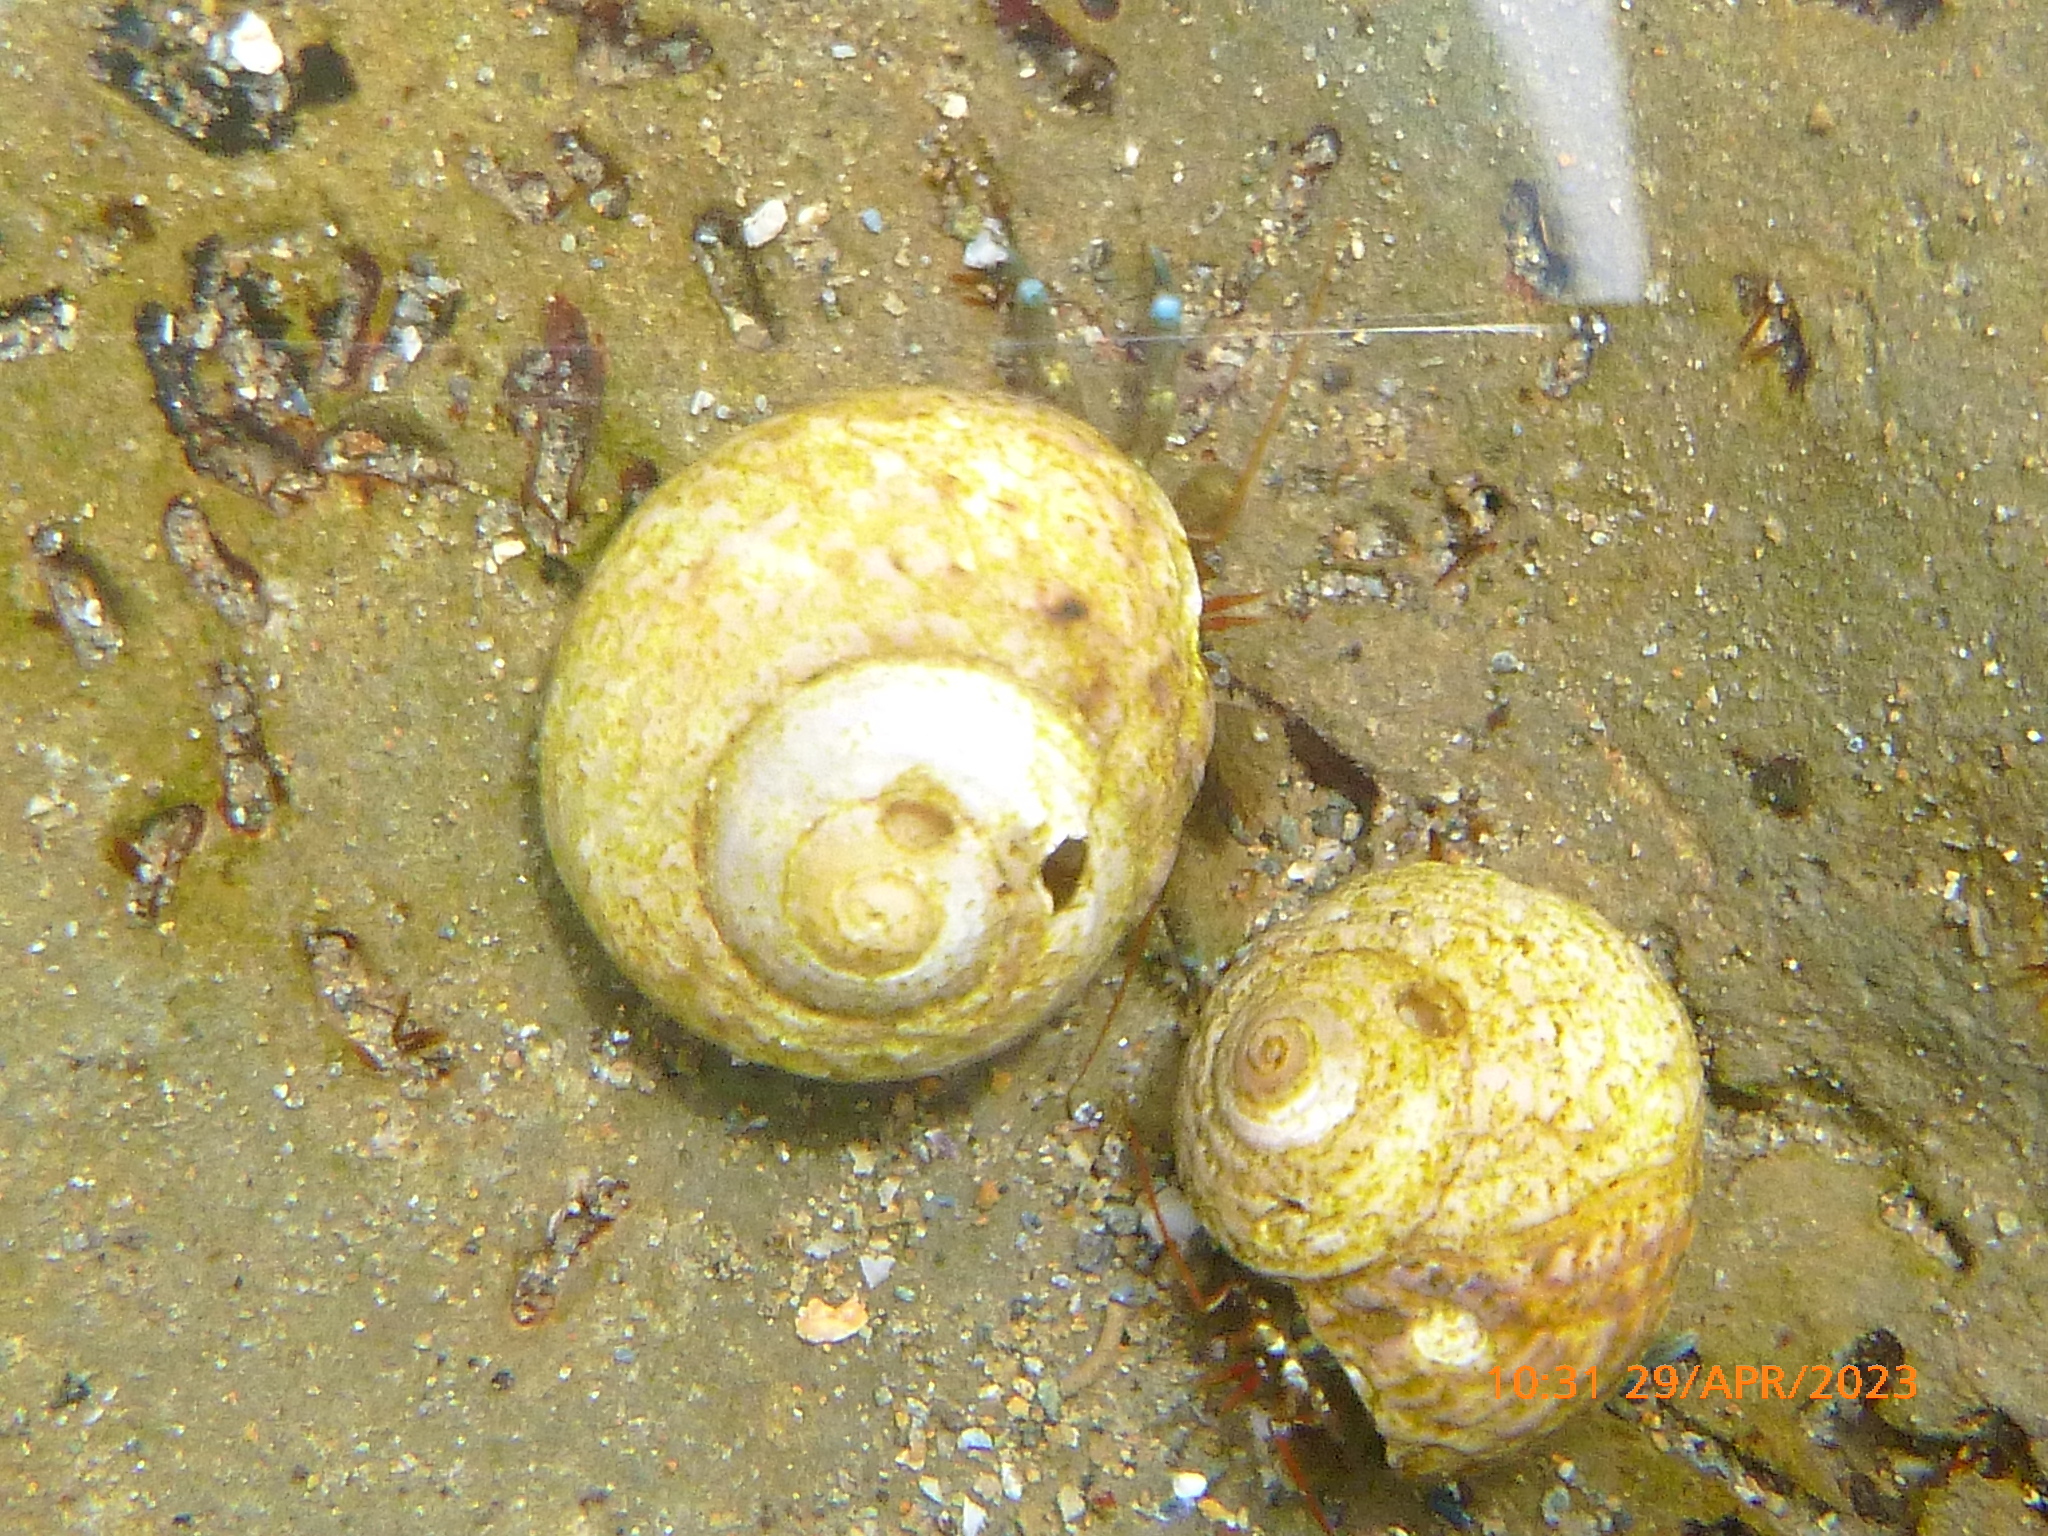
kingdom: Animalia
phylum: Arthropoda
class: Malacostraca
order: Decapoda
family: Paguridae
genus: Pagurus
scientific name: Pagurus samuelis
